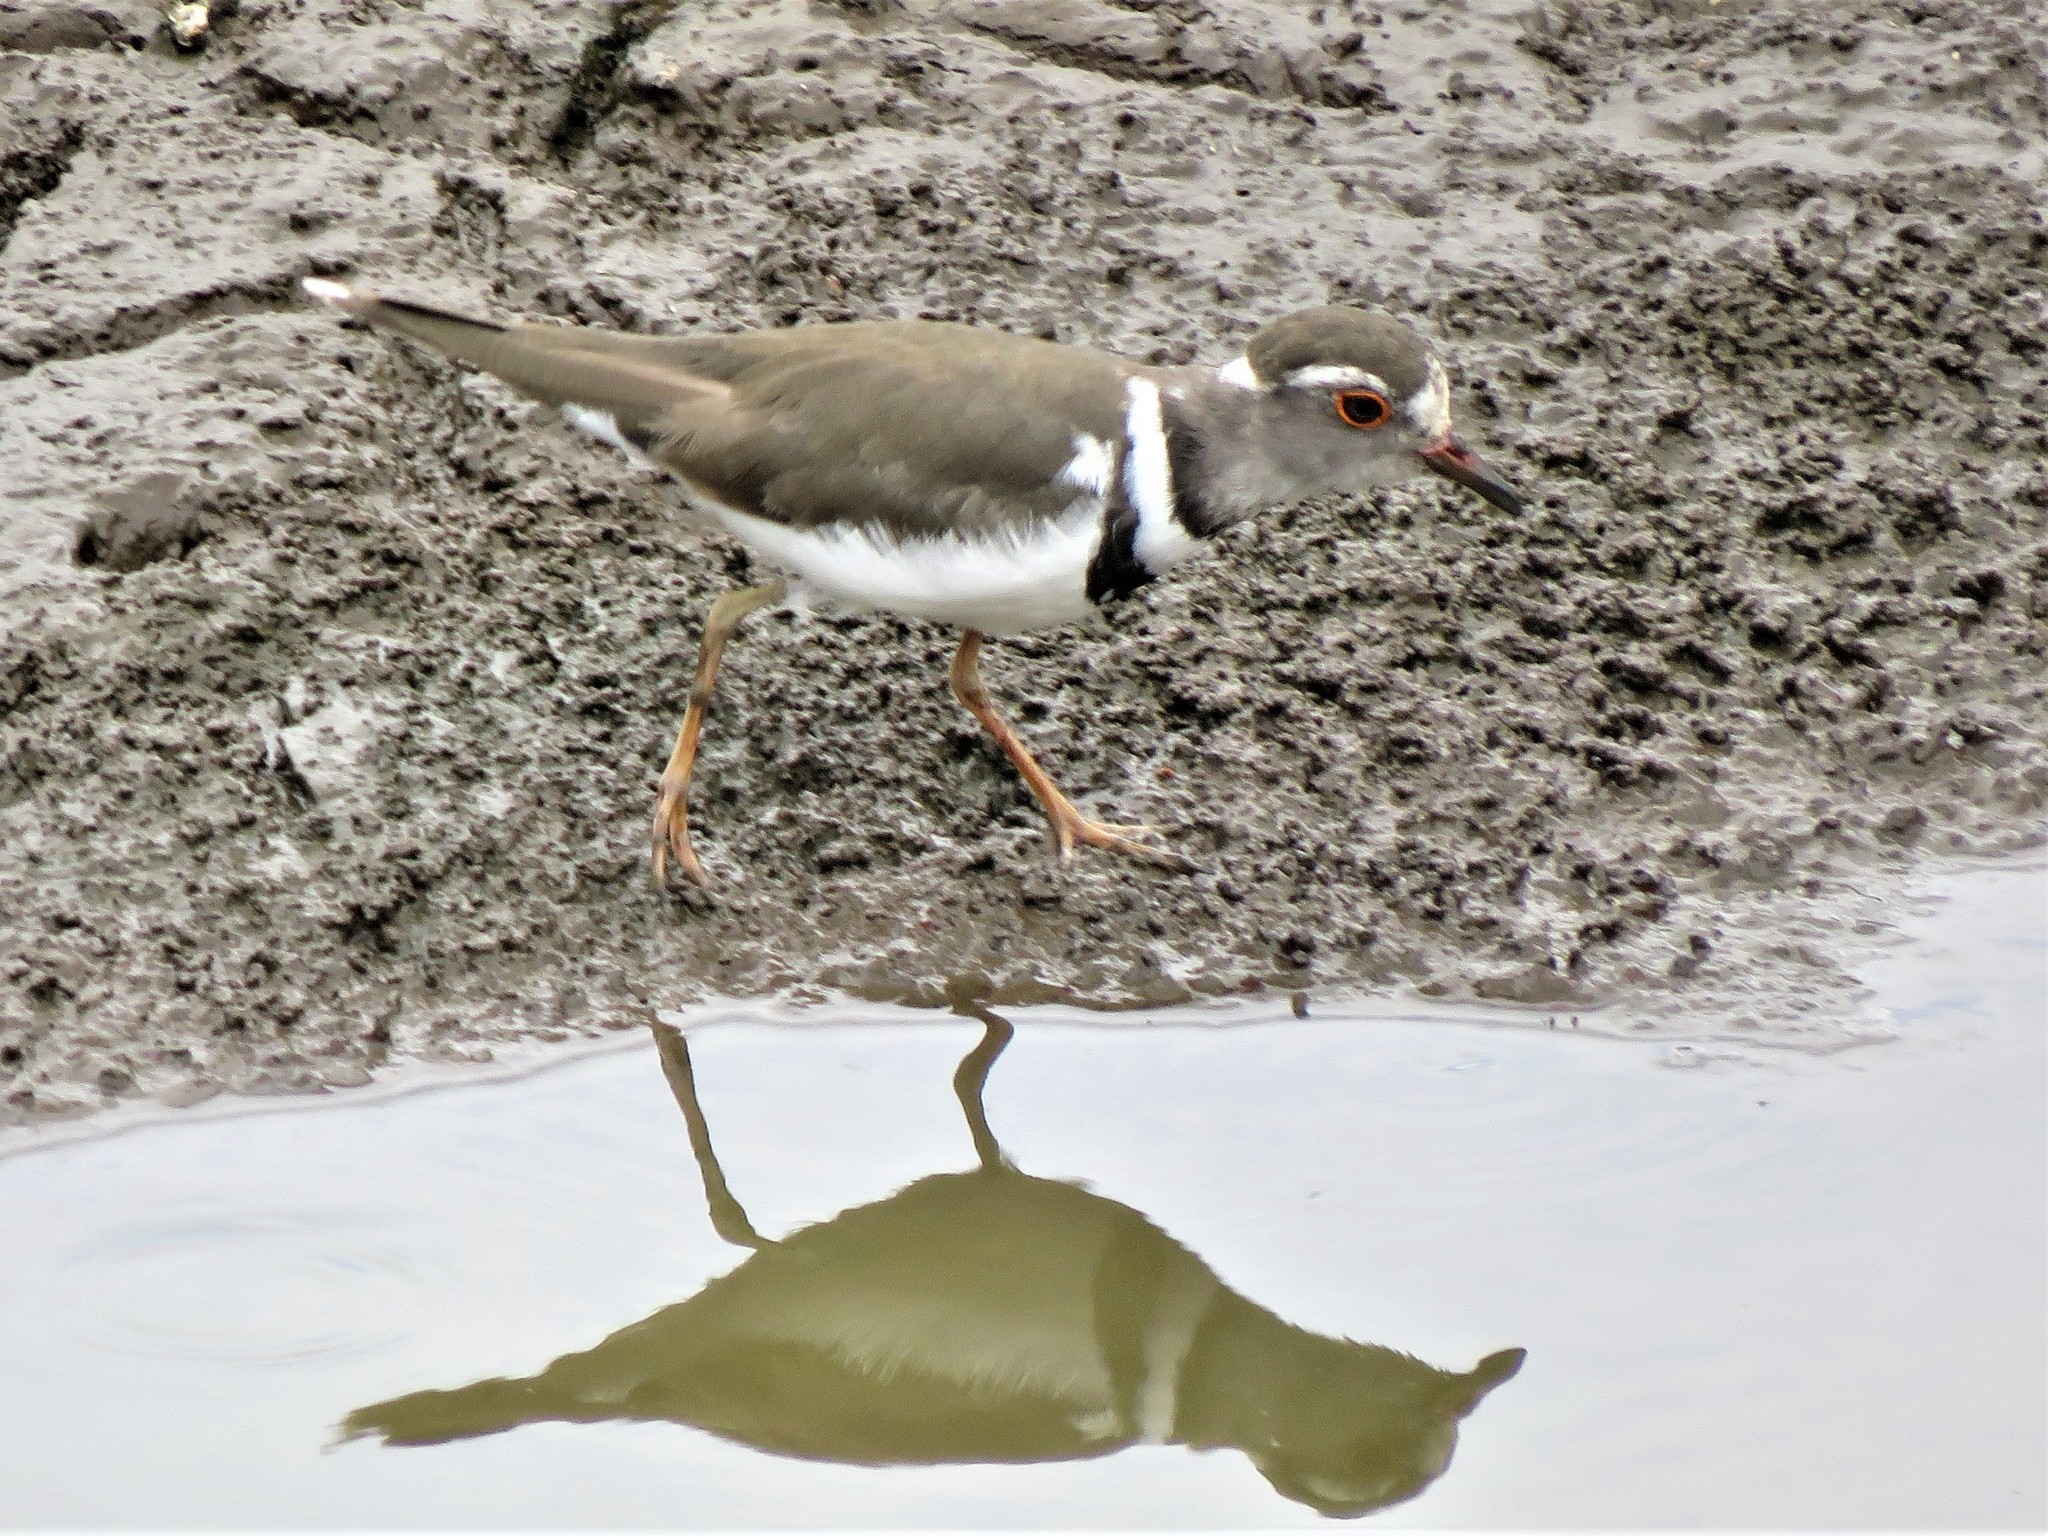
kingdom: Animalia
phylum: Chordata
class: Aves
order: Charadriiformes
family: Charadriidae
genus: Charadrius
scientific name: Charadrius tricollaris
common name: Three-banded plover
